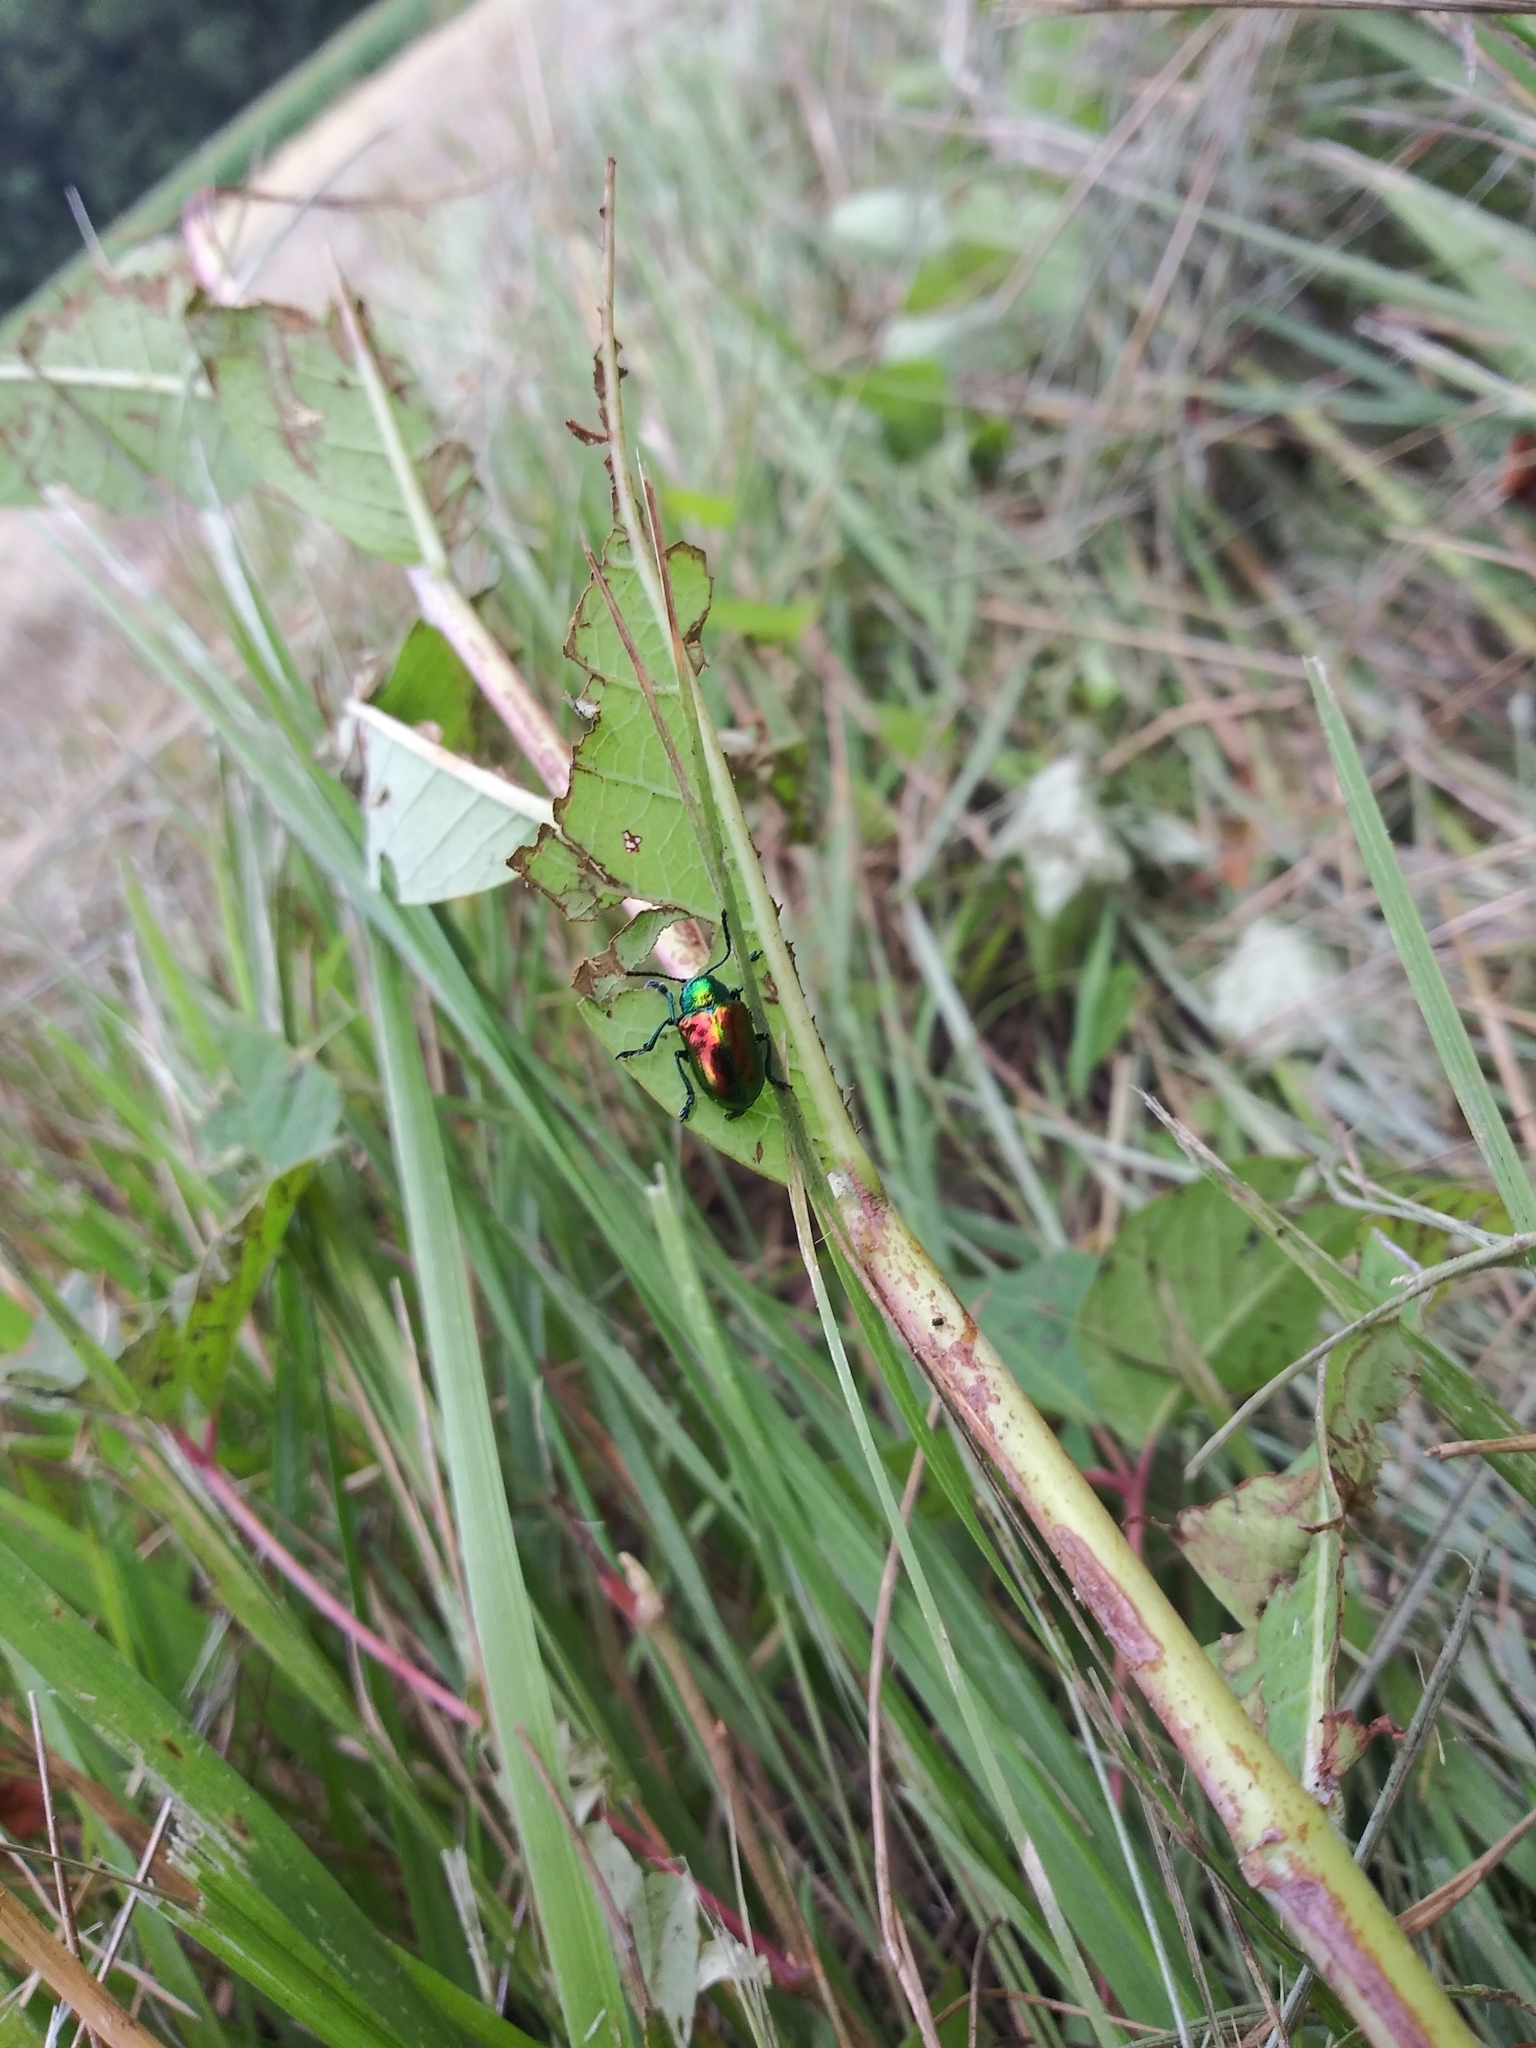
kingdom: Animalia
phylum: Arthropoda
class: Insecta
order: Coleoptera
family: Chrysomelidae
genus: Chrysochus
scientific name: Chrysochus auratus
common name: Dogbane leaf beetle
